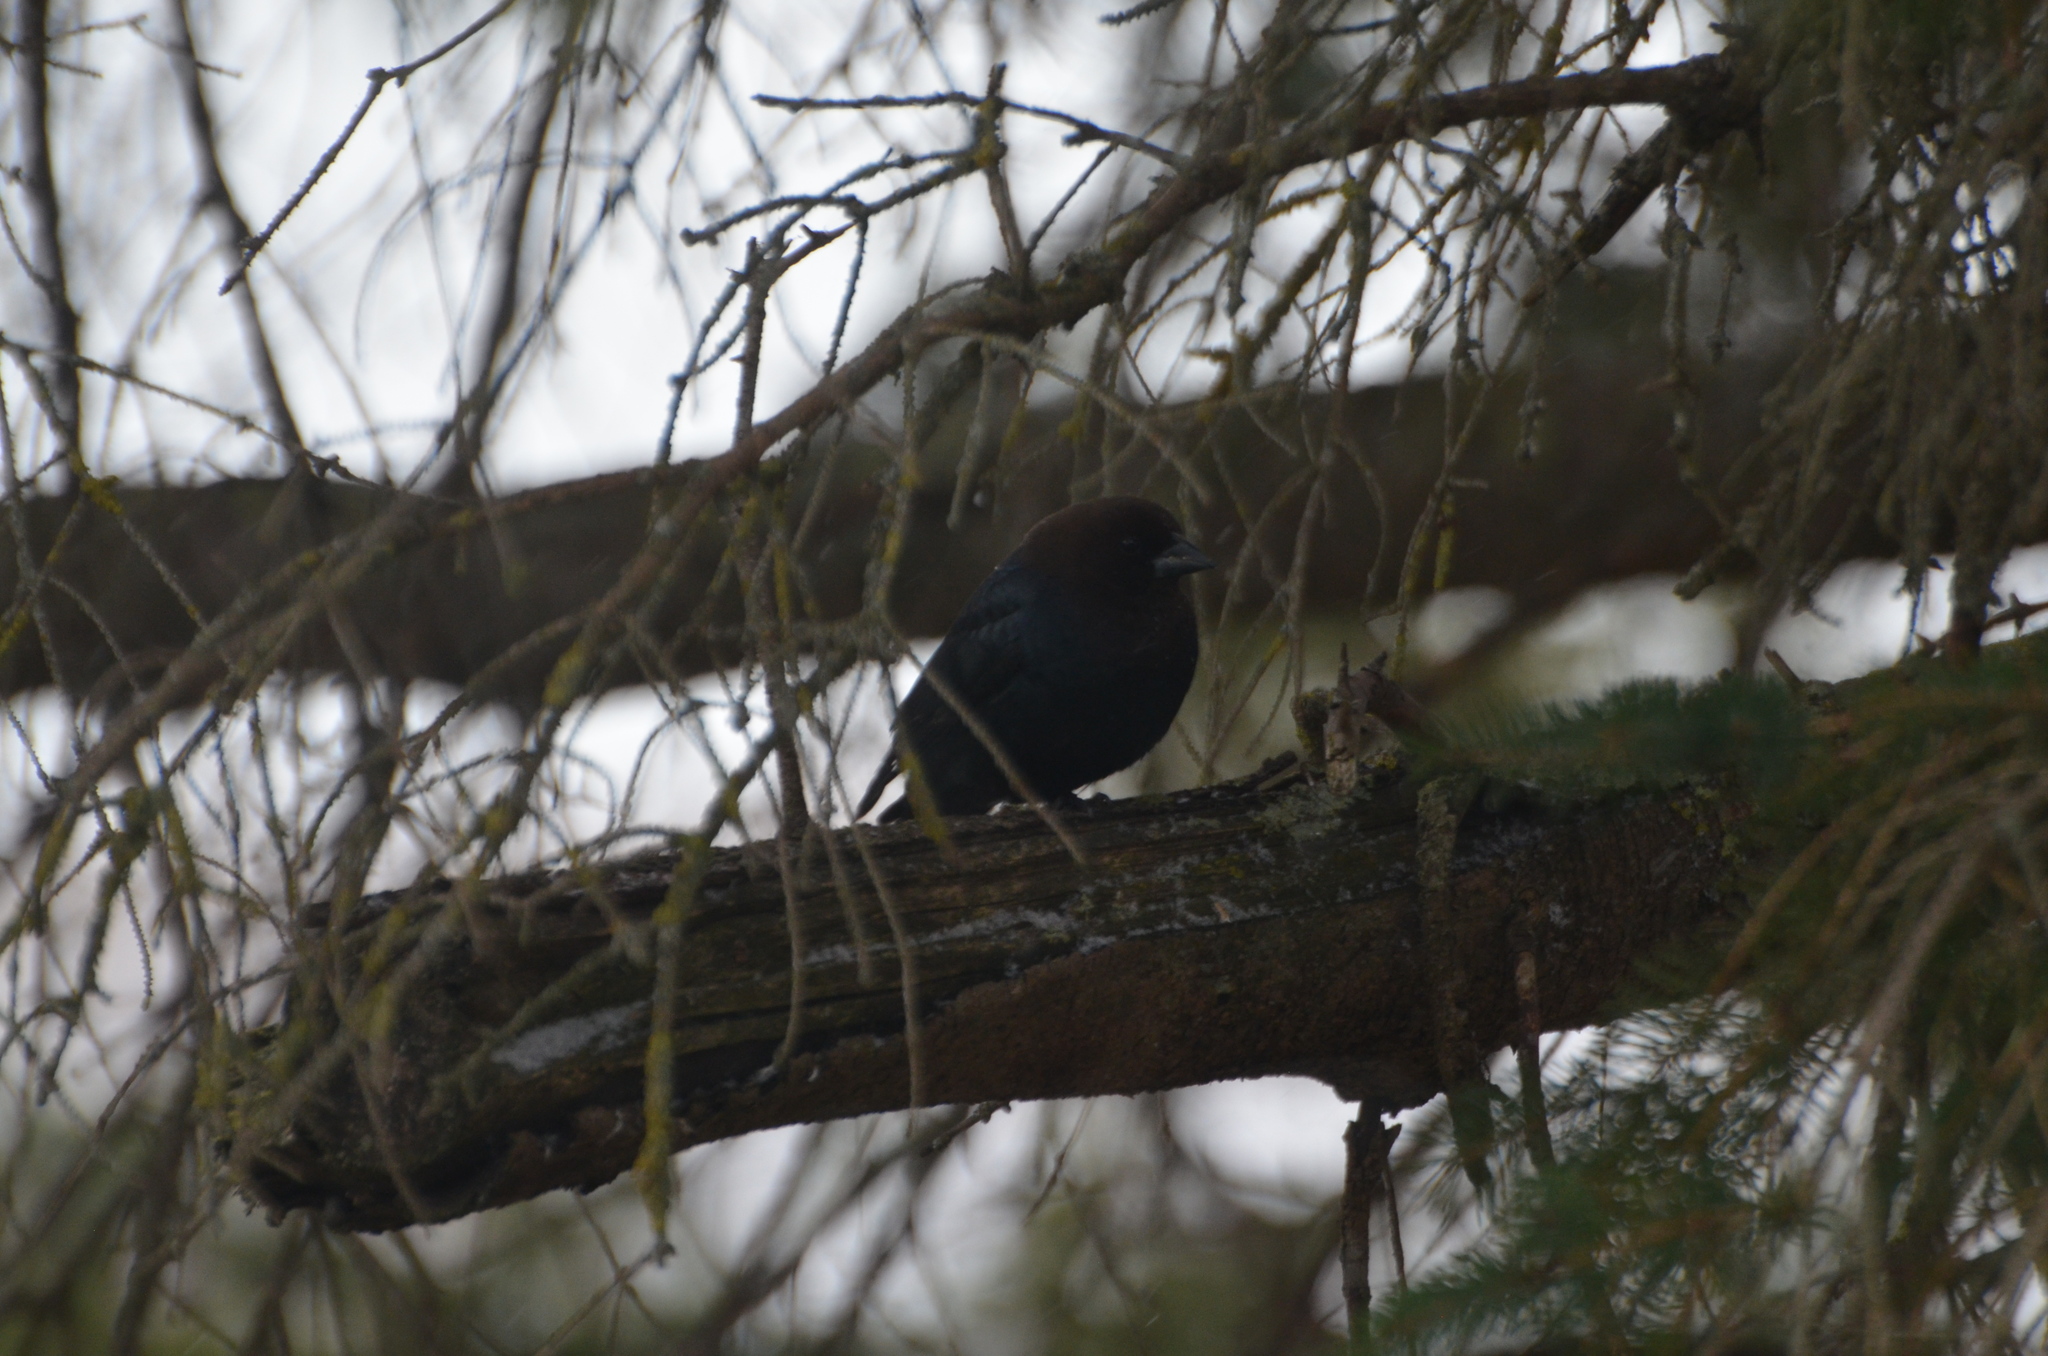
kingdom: Animalia
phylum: Chordata
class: Aves
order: Passeriformes
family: Icteridae
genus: Molothrus
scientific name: Molothrus ater
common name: Brown-headed cowbird
